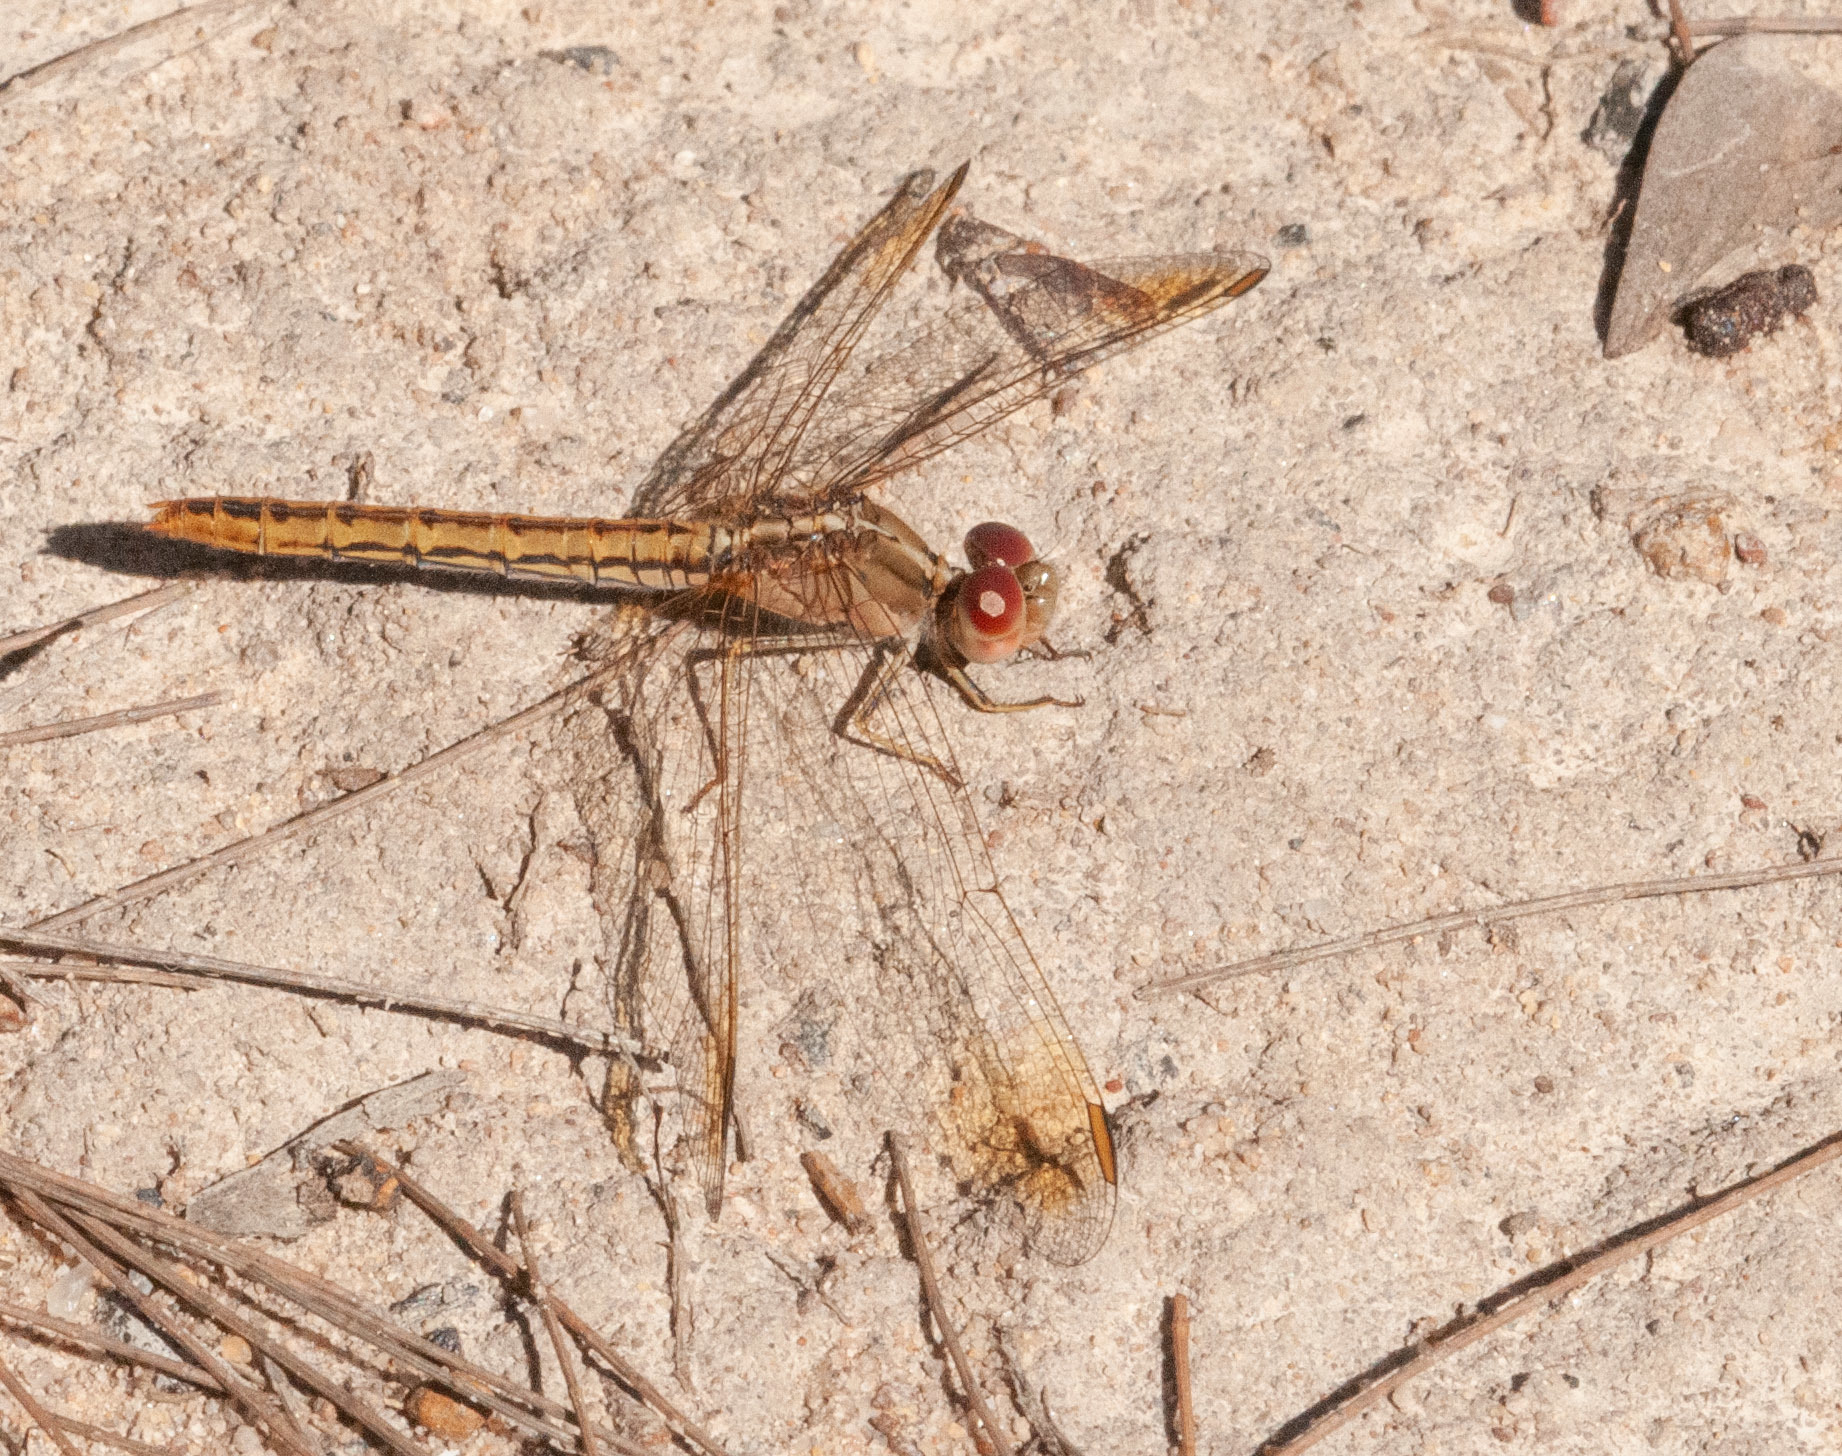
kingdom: Animalia
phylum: Arthropoda
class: Insecta
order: Odonata
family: Libellulidae
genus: Diplacodes
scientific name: Diplacodes haematodes
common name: Scarlet percher
